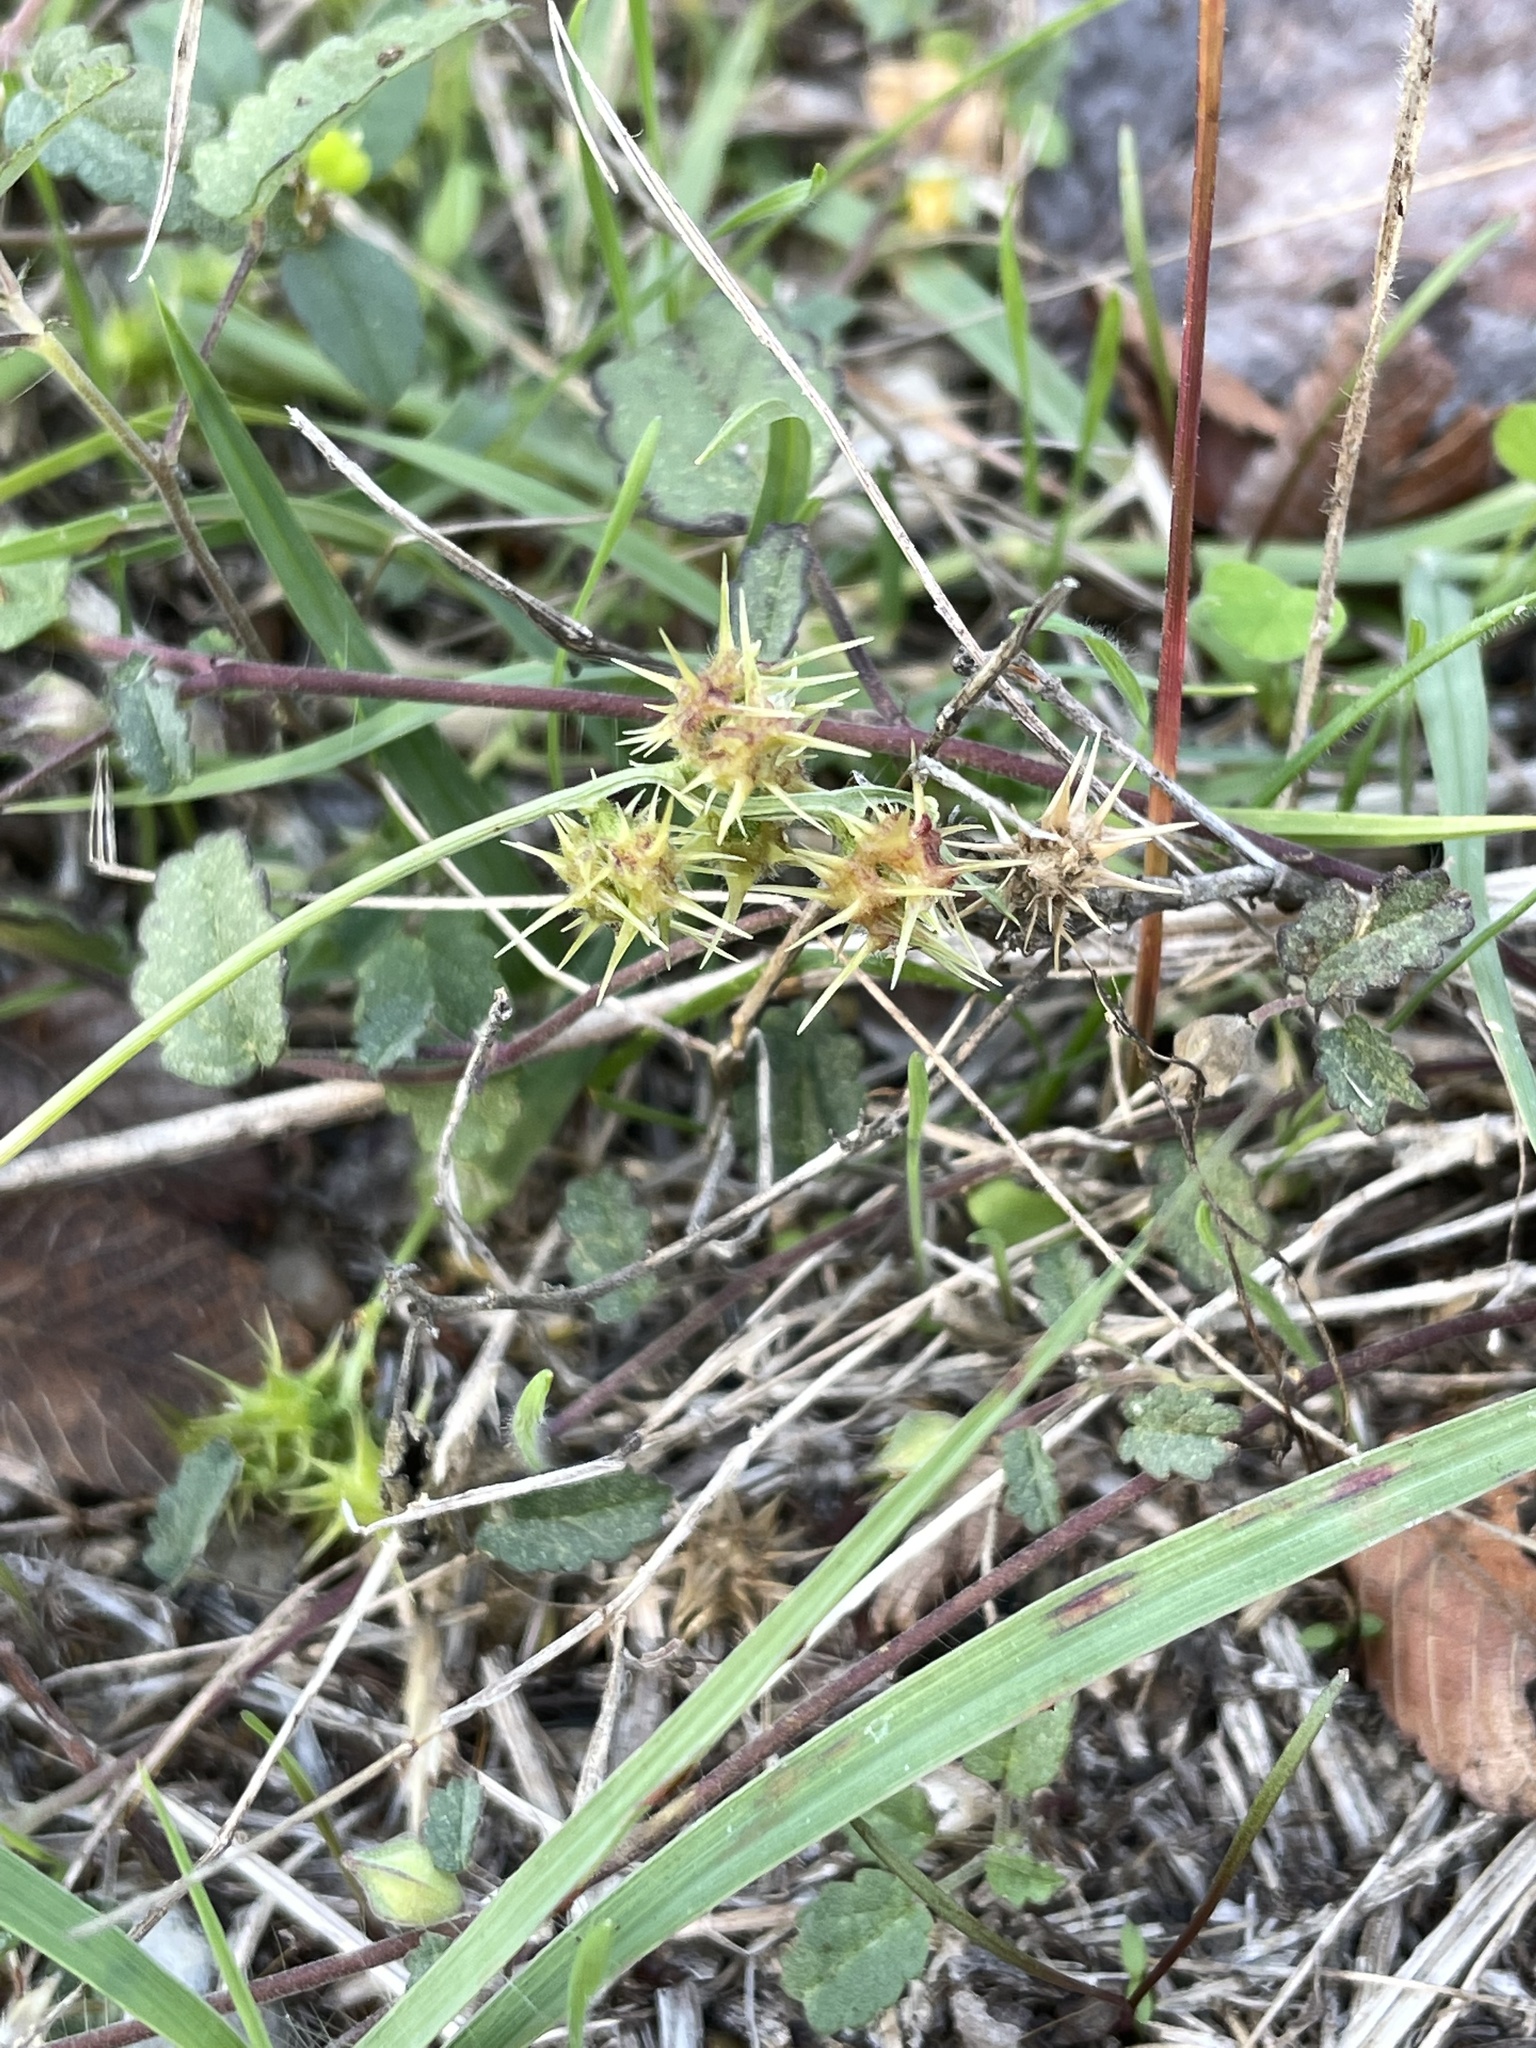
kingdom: Plantae
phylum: Tracheophyta
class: Liliopsida
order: Poales
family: Poaceae
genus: Cenchrus
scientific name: Cenchrus spinifex
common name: Coast sandbur
